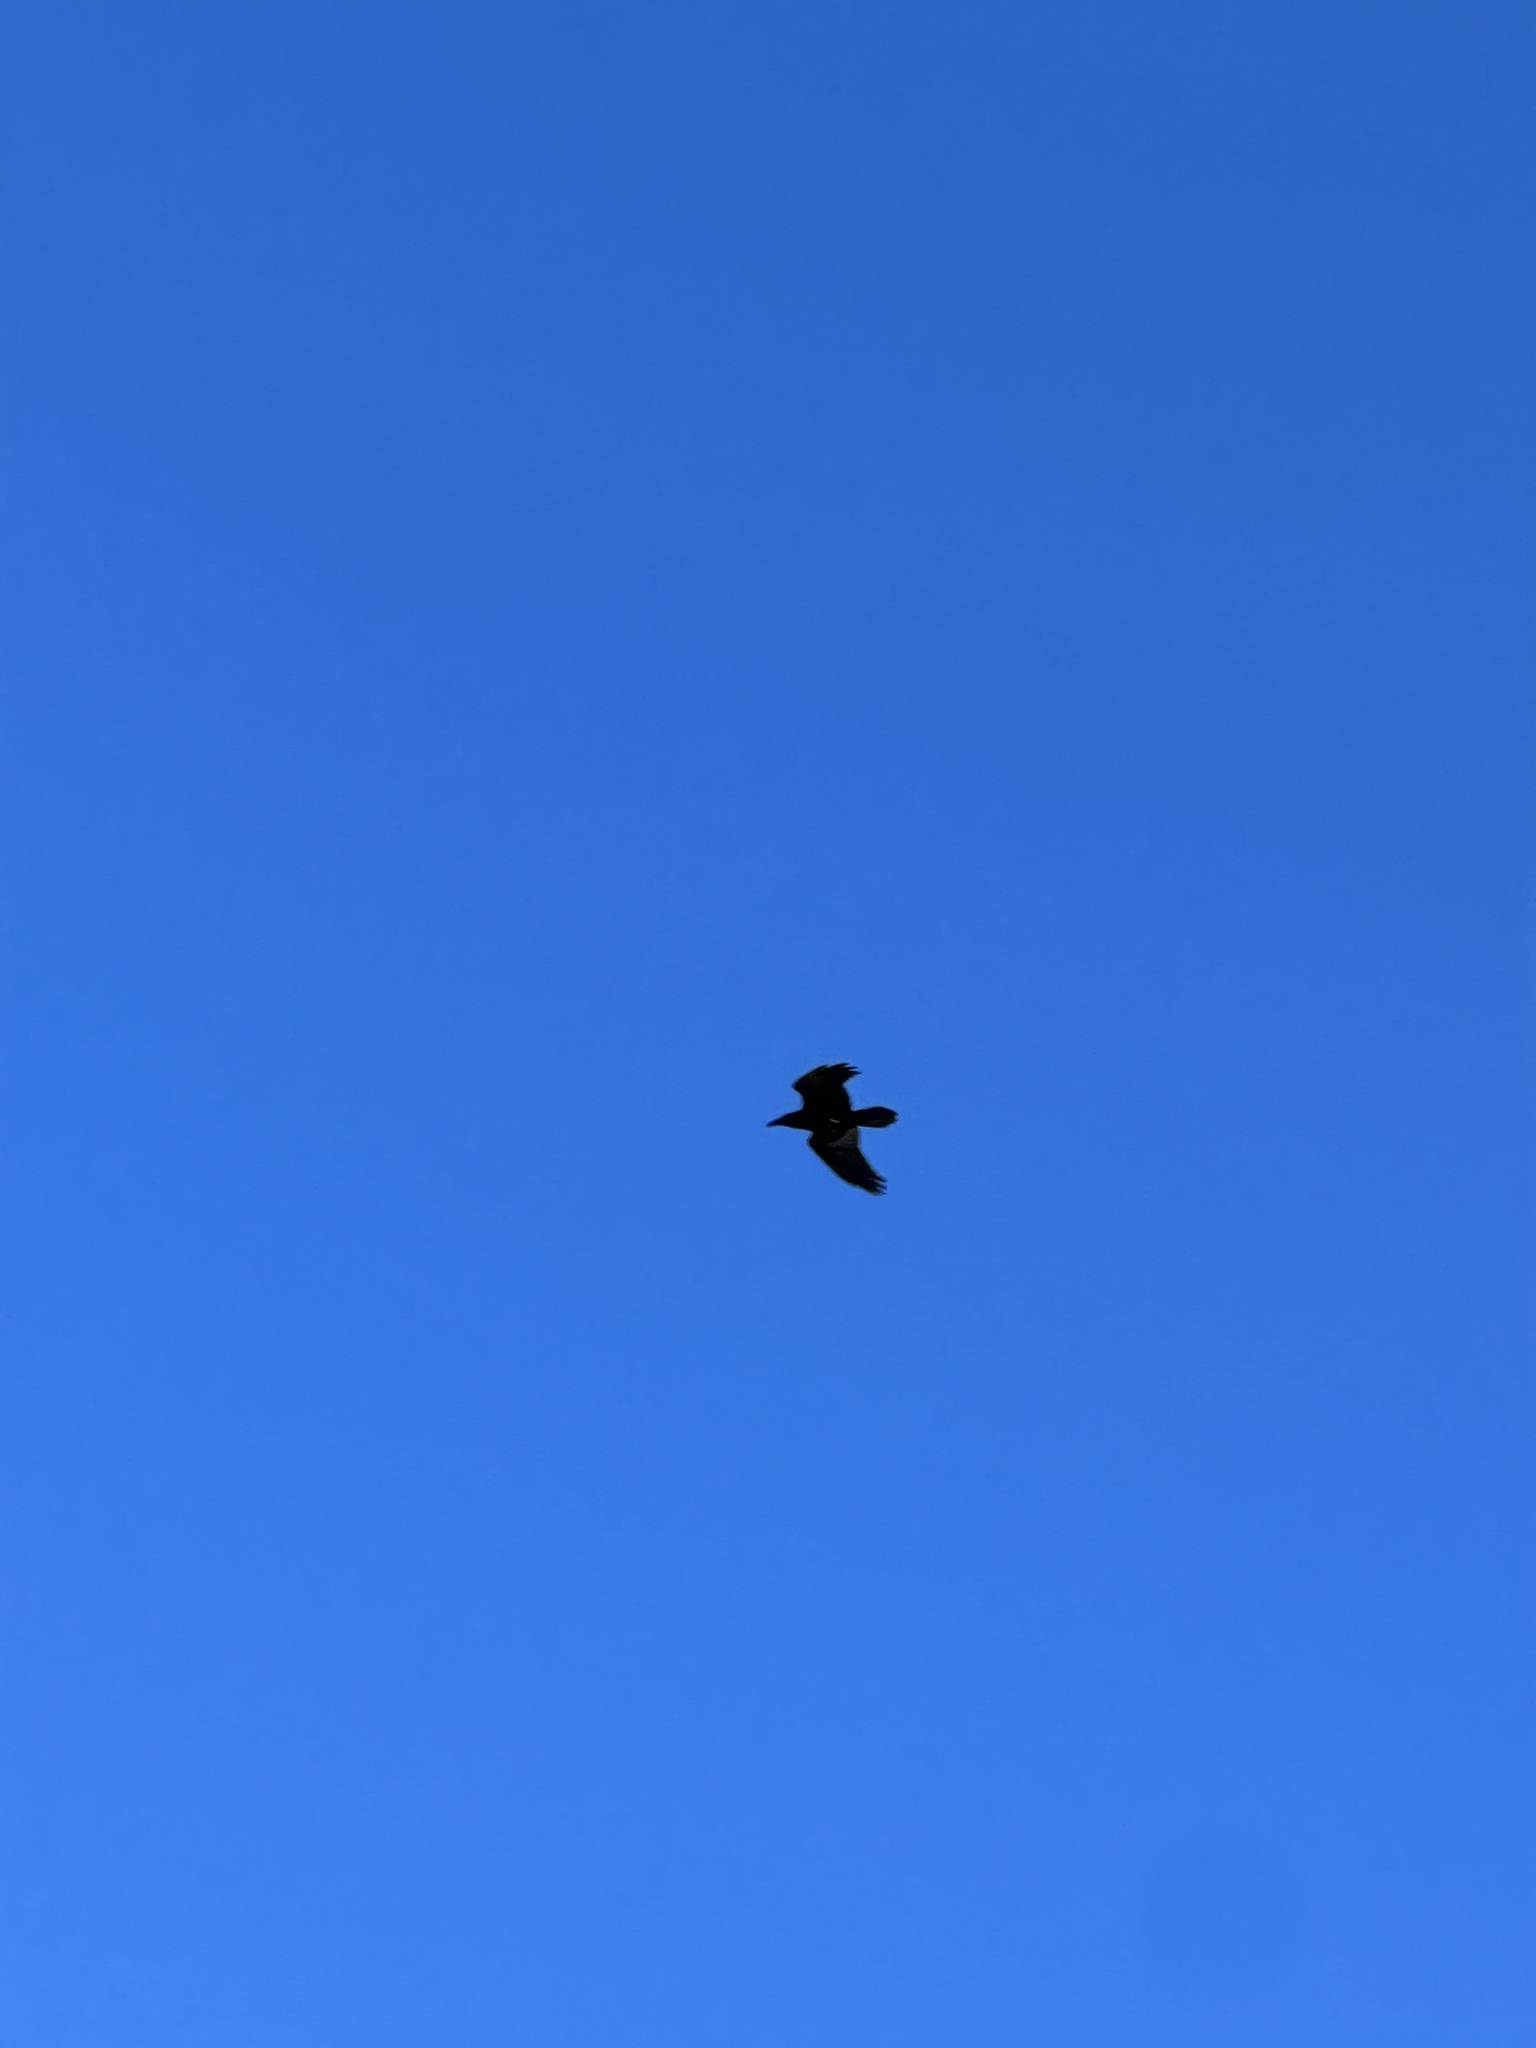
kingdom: Animalia
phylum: Chordata
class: Aves
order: Passeriformes
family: Corvidae
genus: Corvus
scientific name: Corvus corax
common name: Common raven
